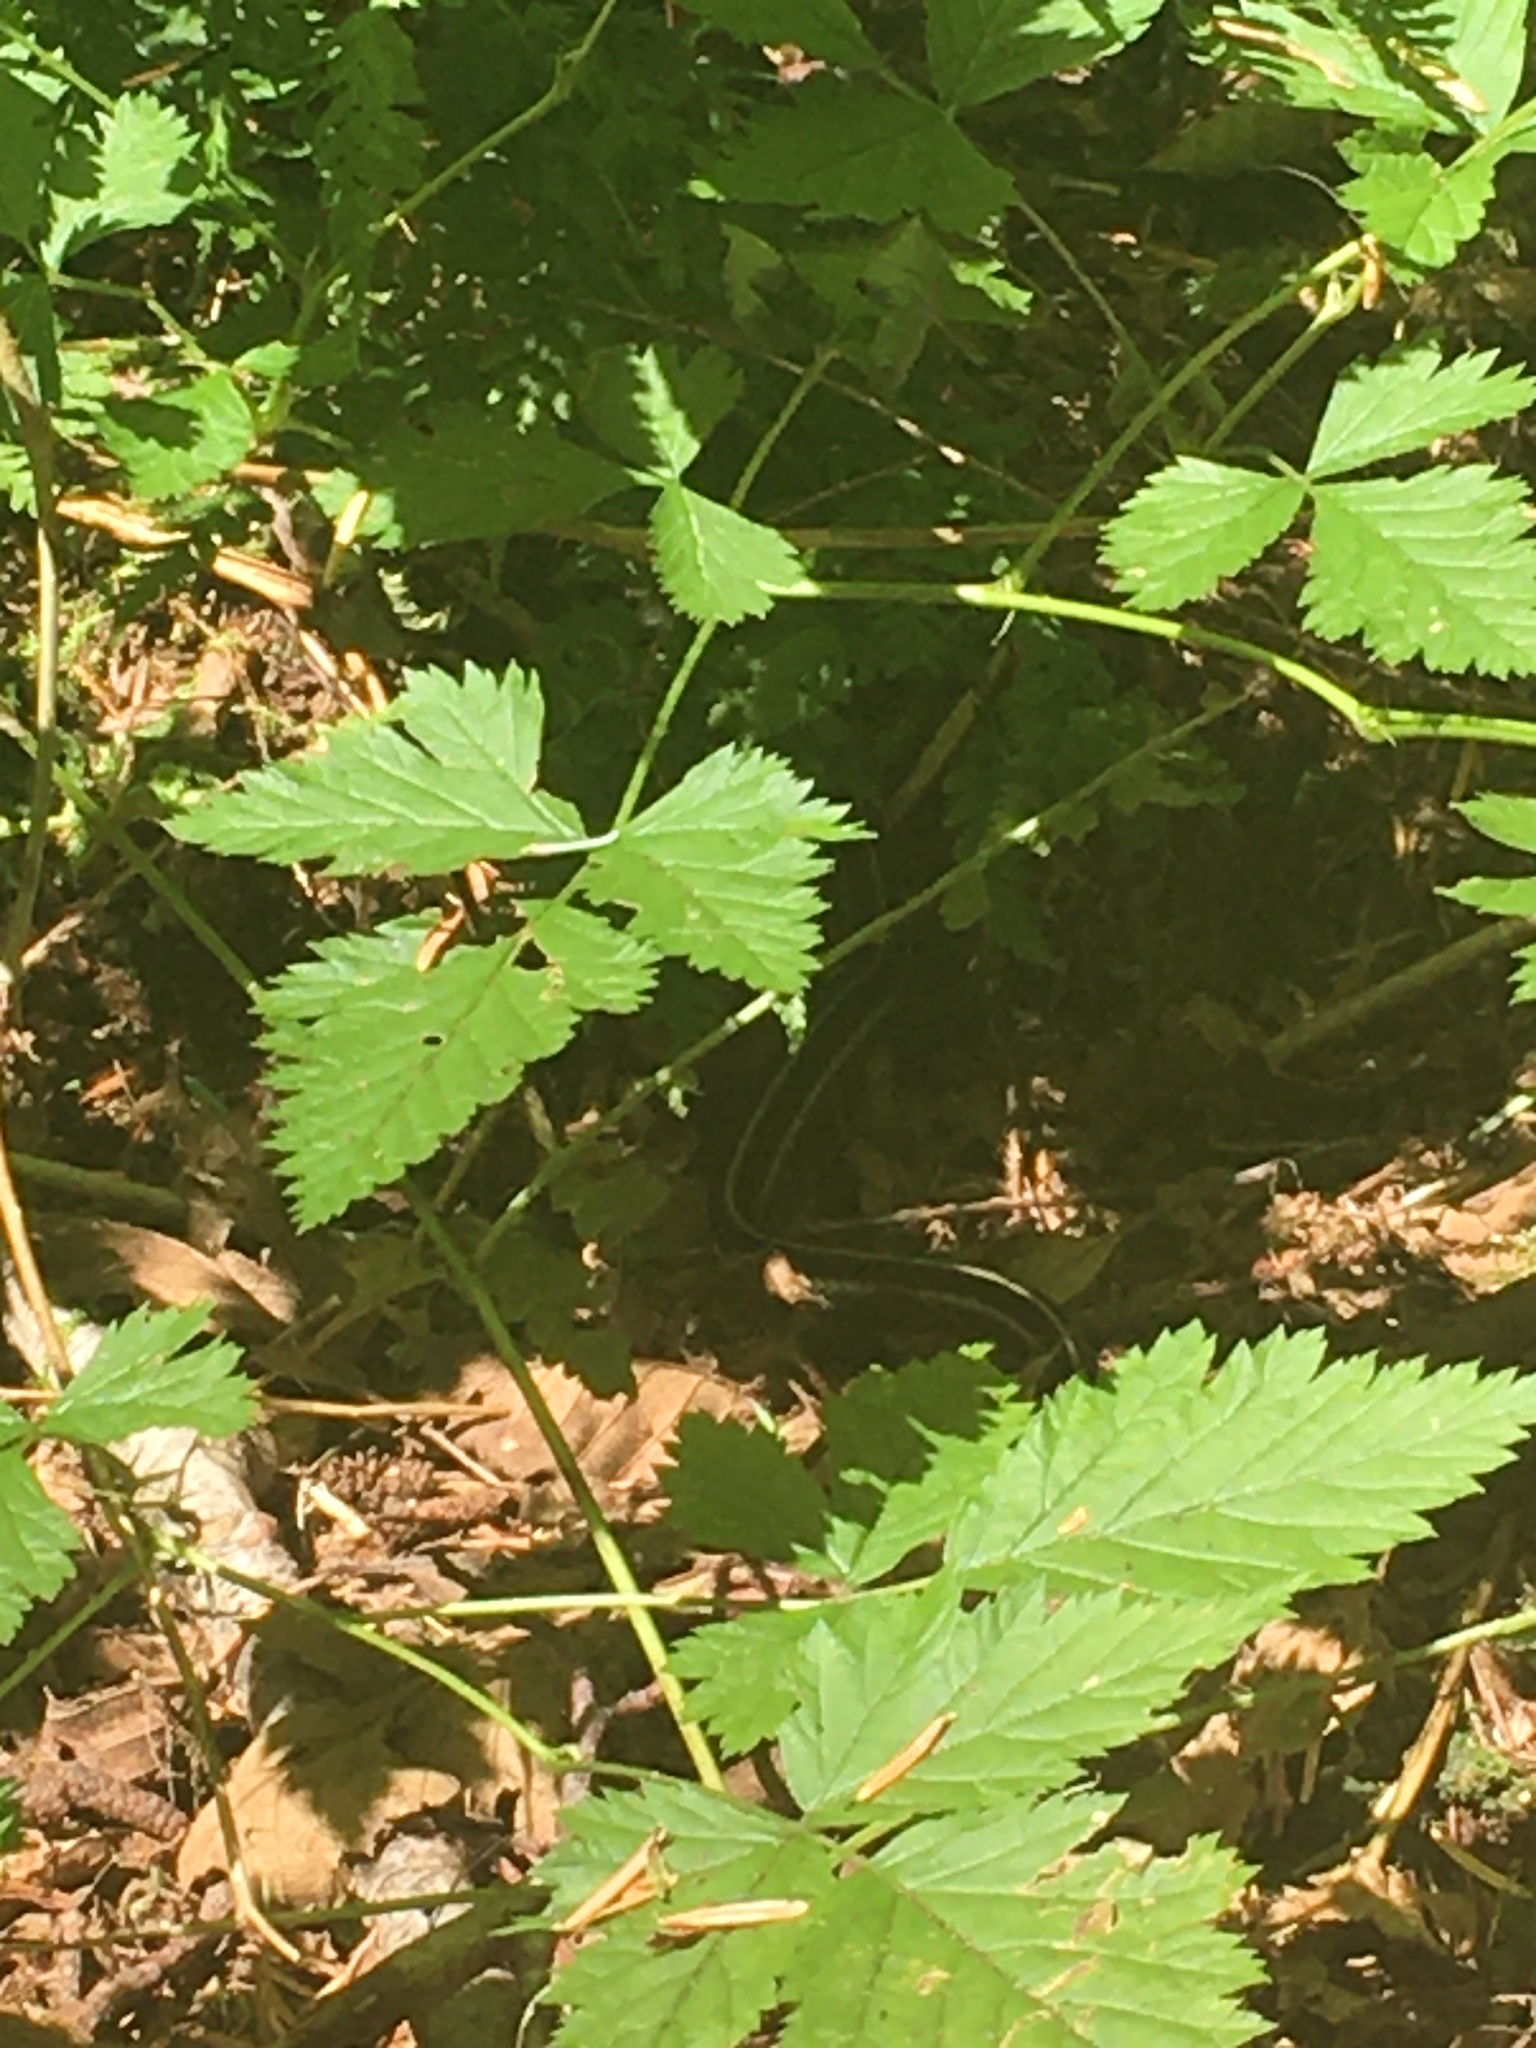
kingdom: Animalia
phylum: Chordata
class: Squamata
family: Colubridae
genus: Thamnophis
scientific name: Thamnophis sirtalis
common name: Common garter snake
